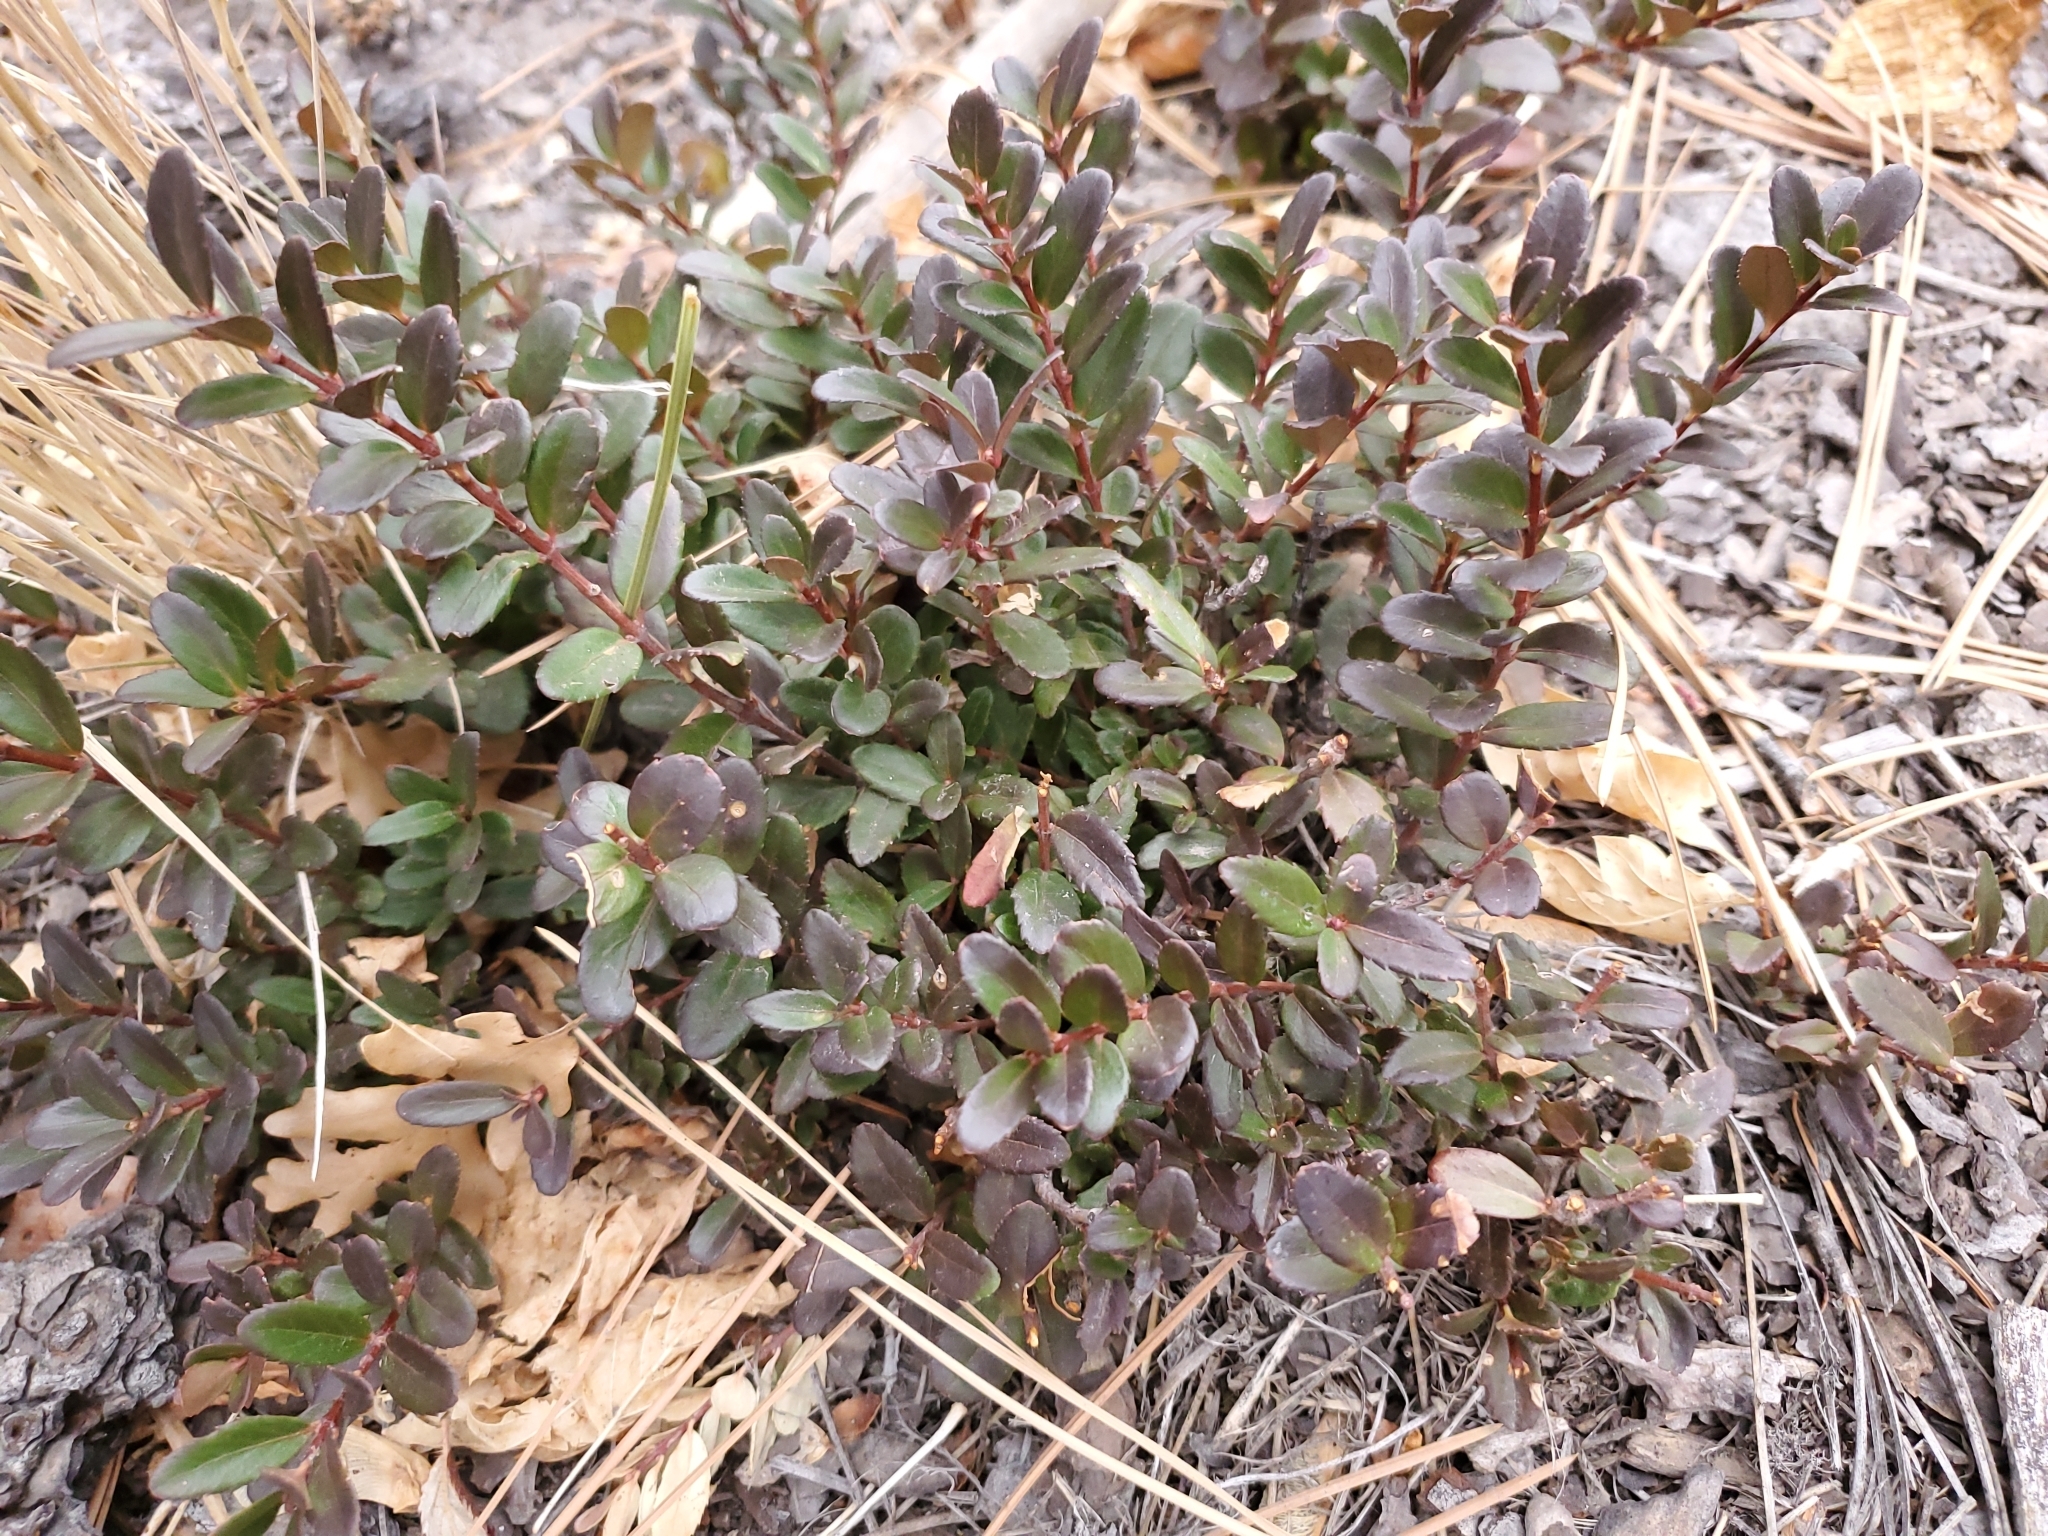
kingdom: Plantae
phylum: Tracheophyta
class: Magnoliopsida
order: Celastrales
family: Celastraceae
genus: Paxistima
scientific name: Paxistima myrsinites
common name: Mountain-lover
